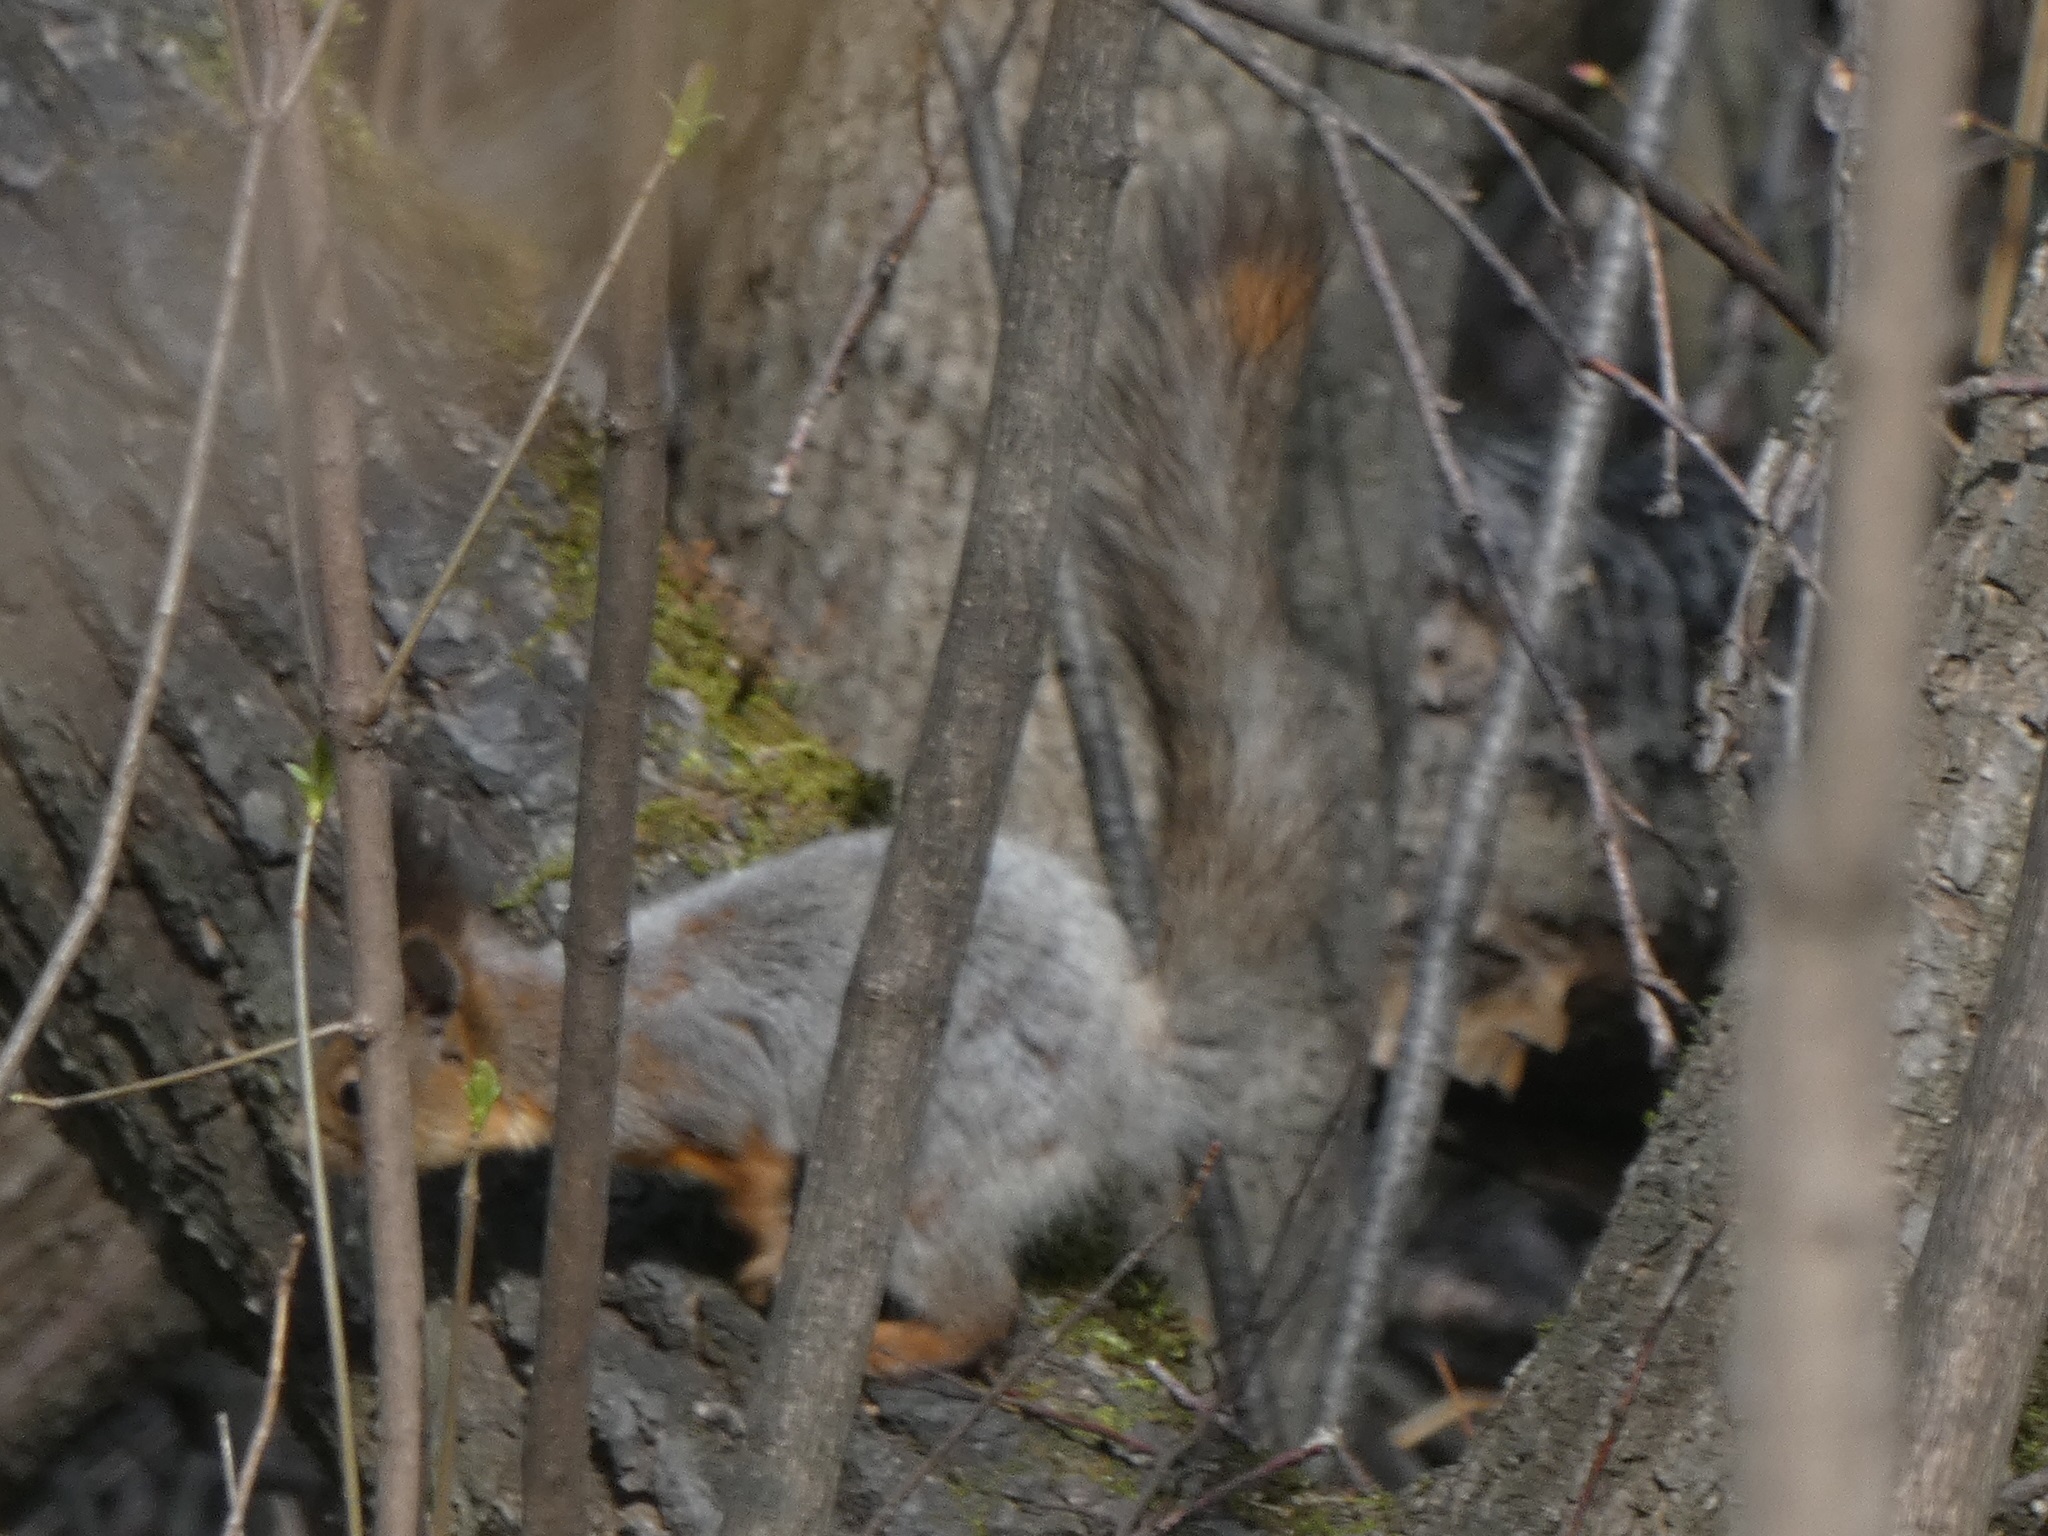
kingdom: Animalia
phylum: Chordata
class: Mammalia
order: Rodentia
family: Sciuridae
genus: Sciurus
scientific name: Sciurus vulgaris
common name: Eurasian red squirrel
